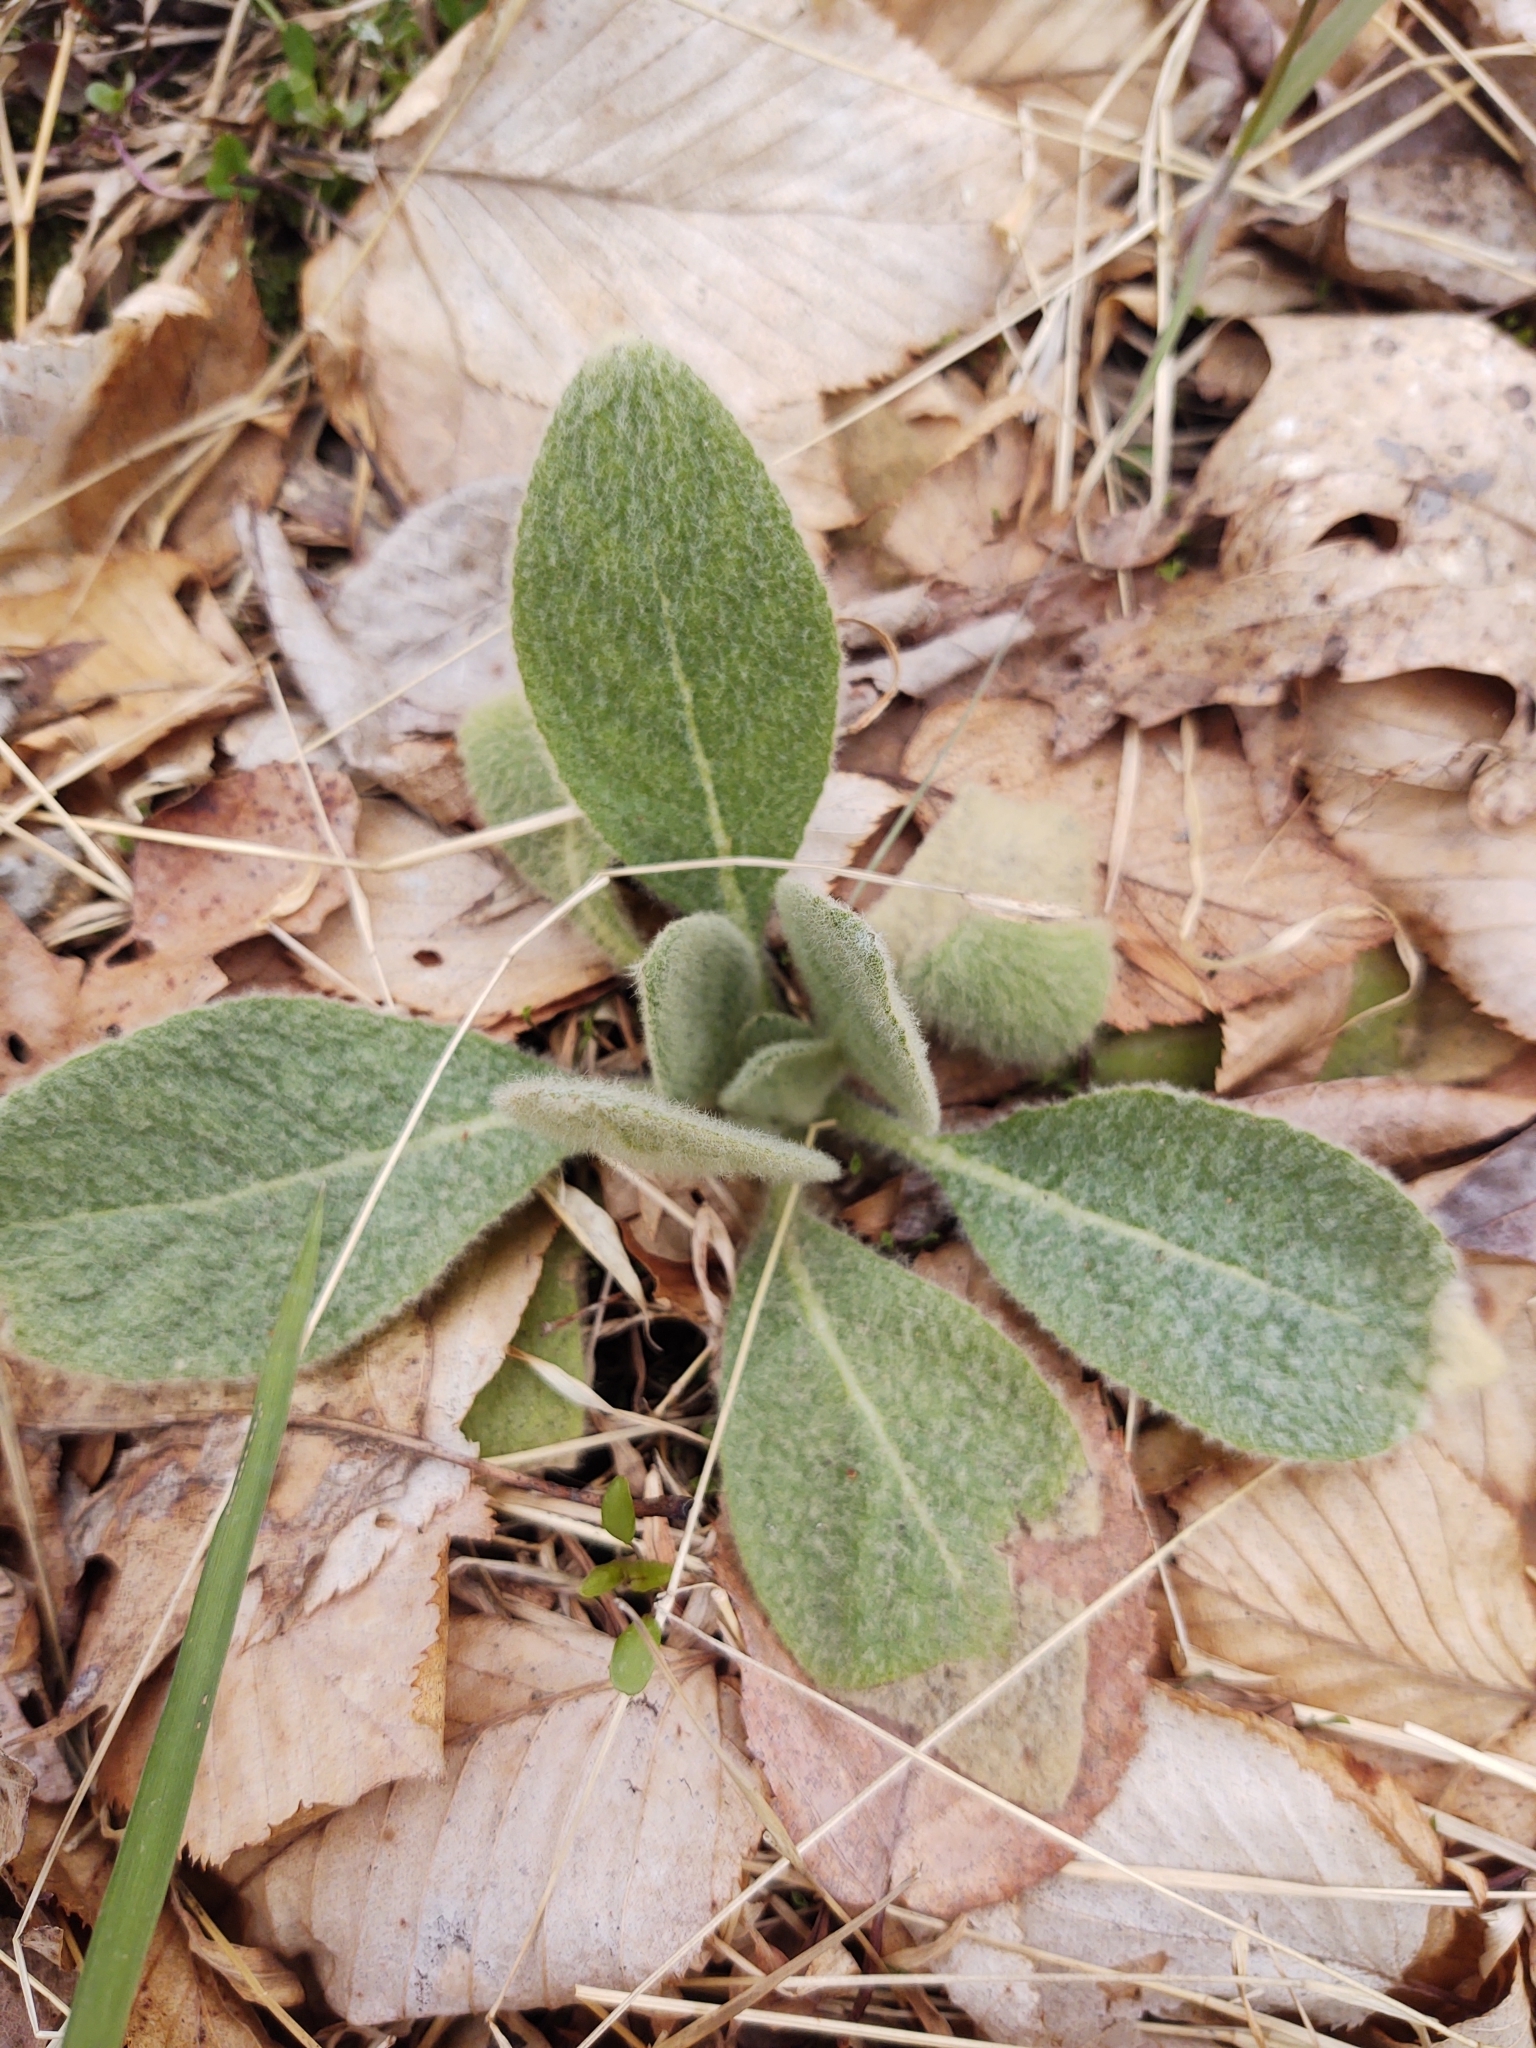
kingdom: Plantae
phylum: Tracheophyta
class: Magnoliopsida
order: Lamiales
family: Scrophulariaceae
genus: Verbascum
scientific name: Verbascum thapsus
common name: Common mullein
